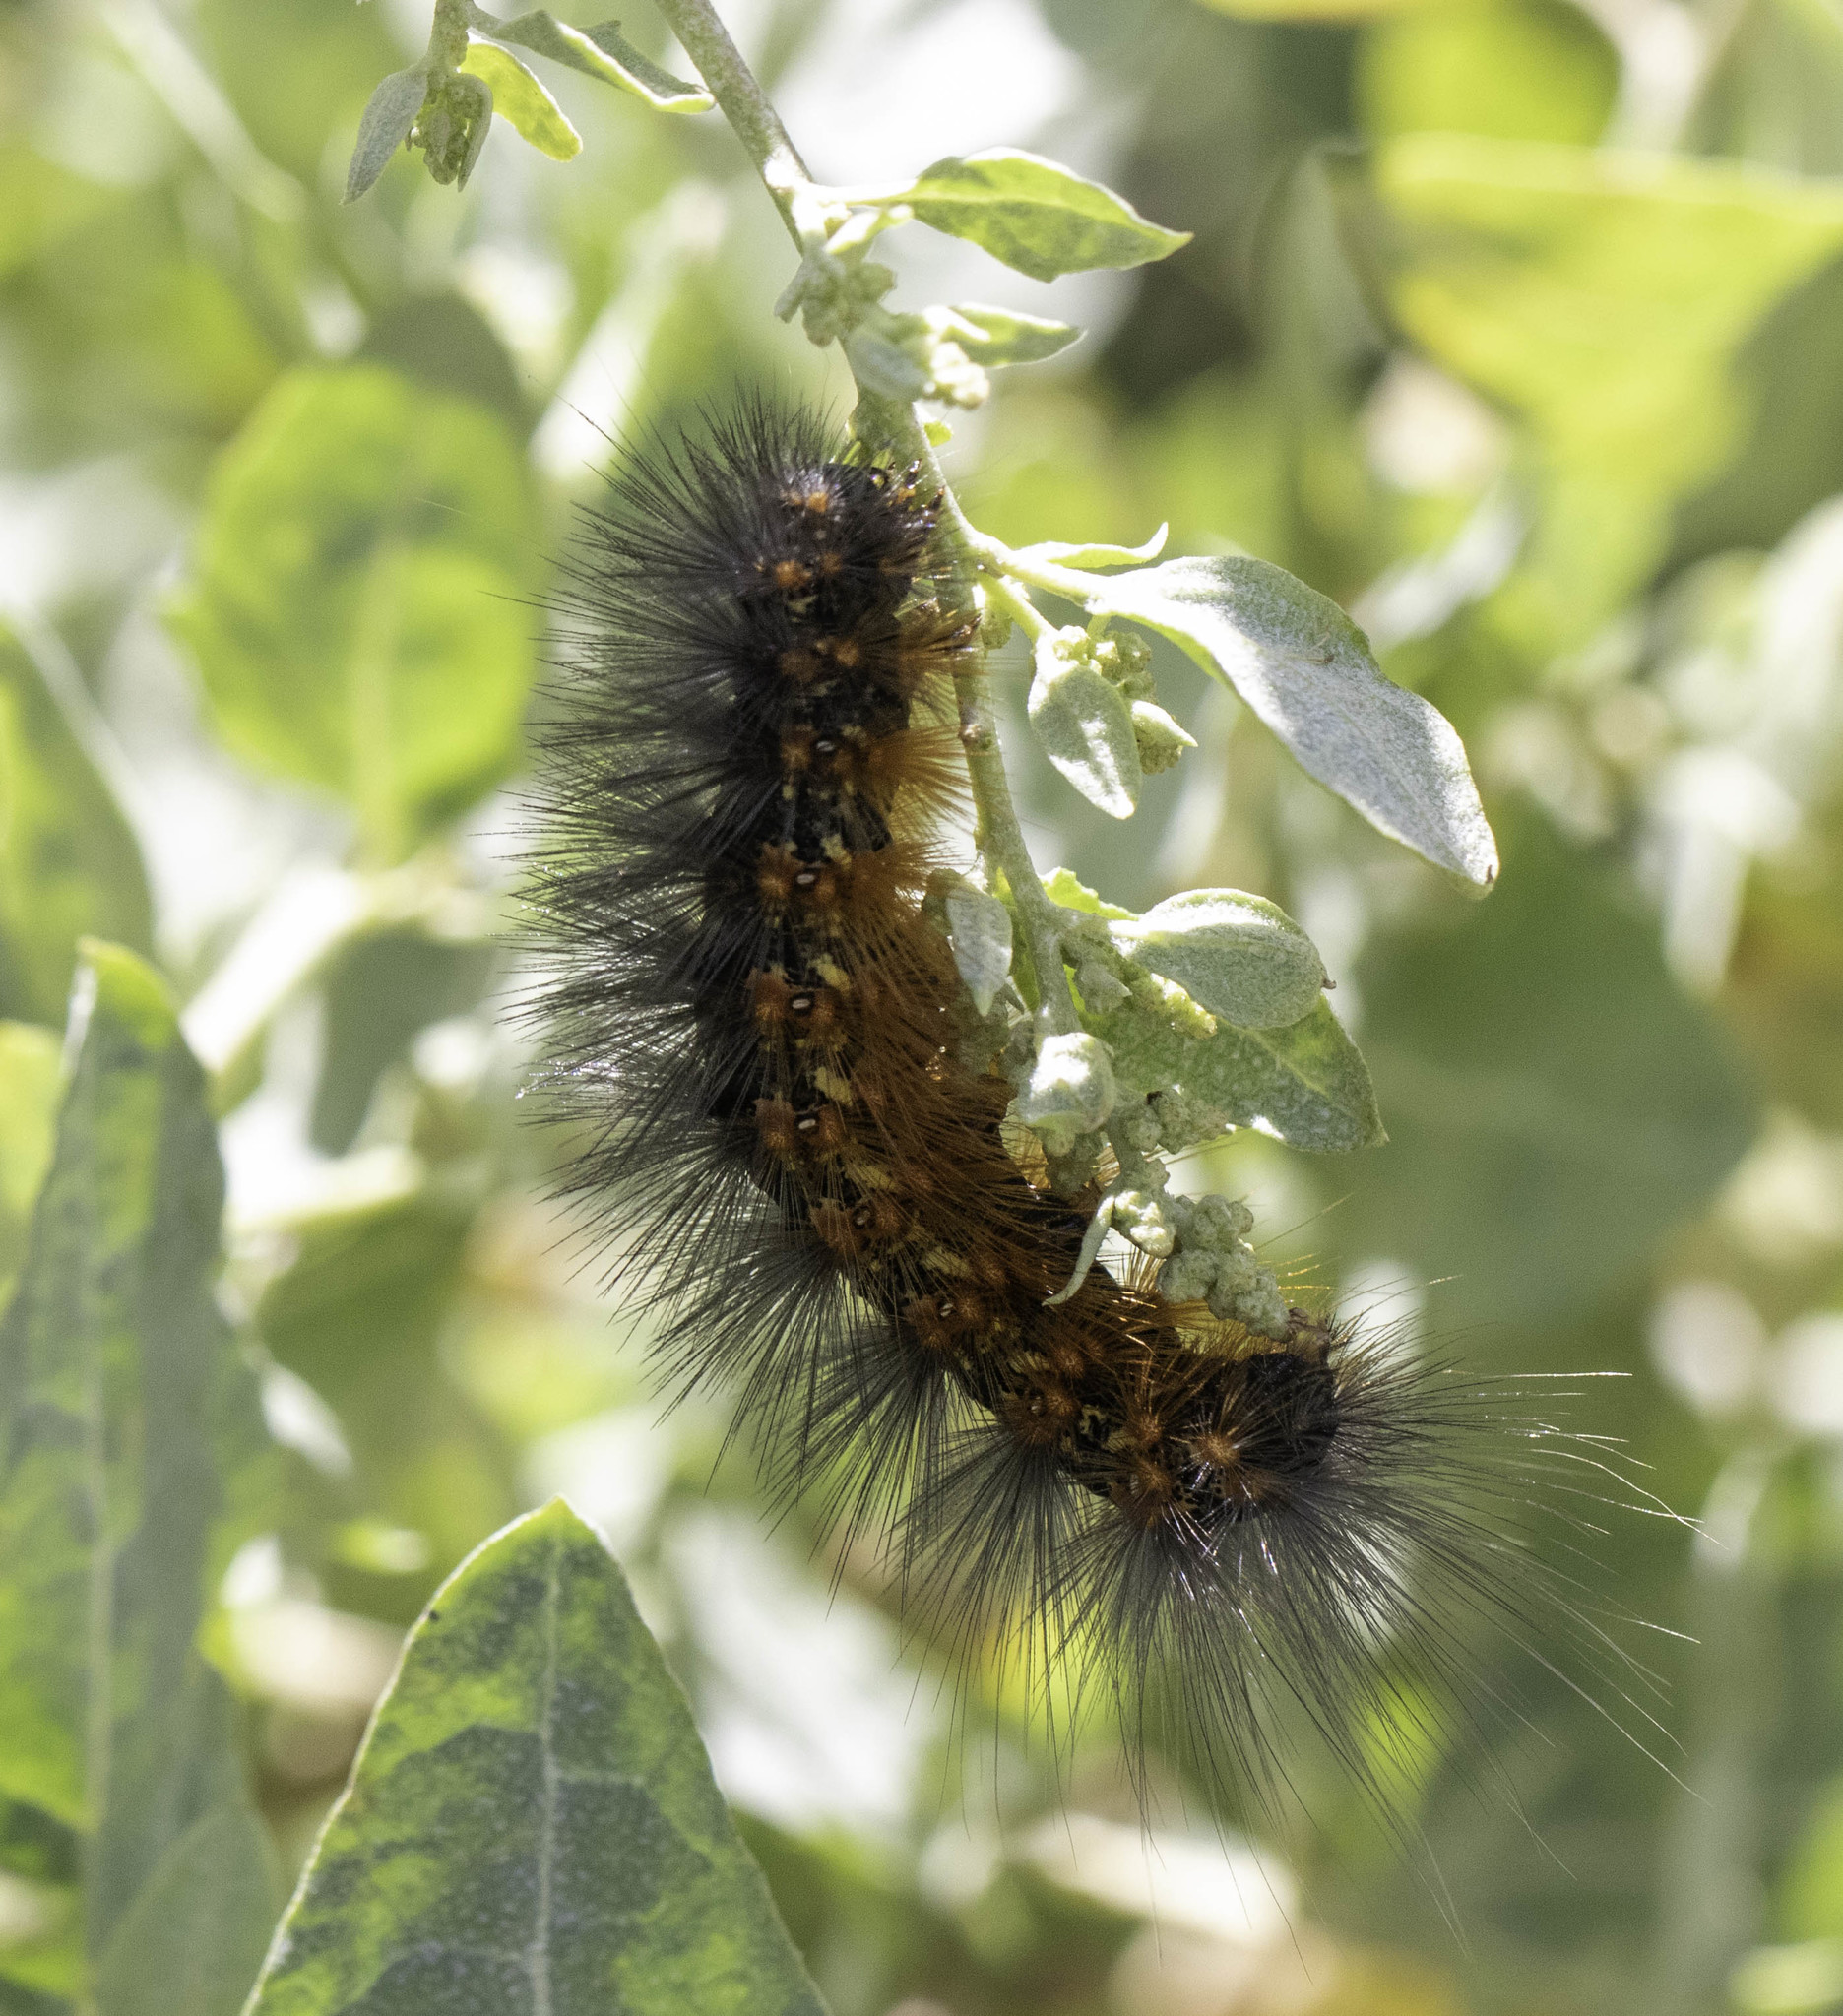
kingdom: Animalia
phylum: Arthropoda
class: Insecta
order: Lepidoptera
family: Erebidae
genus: Estigmene
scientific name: Estigmene acrea
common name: Salt marsh moth
